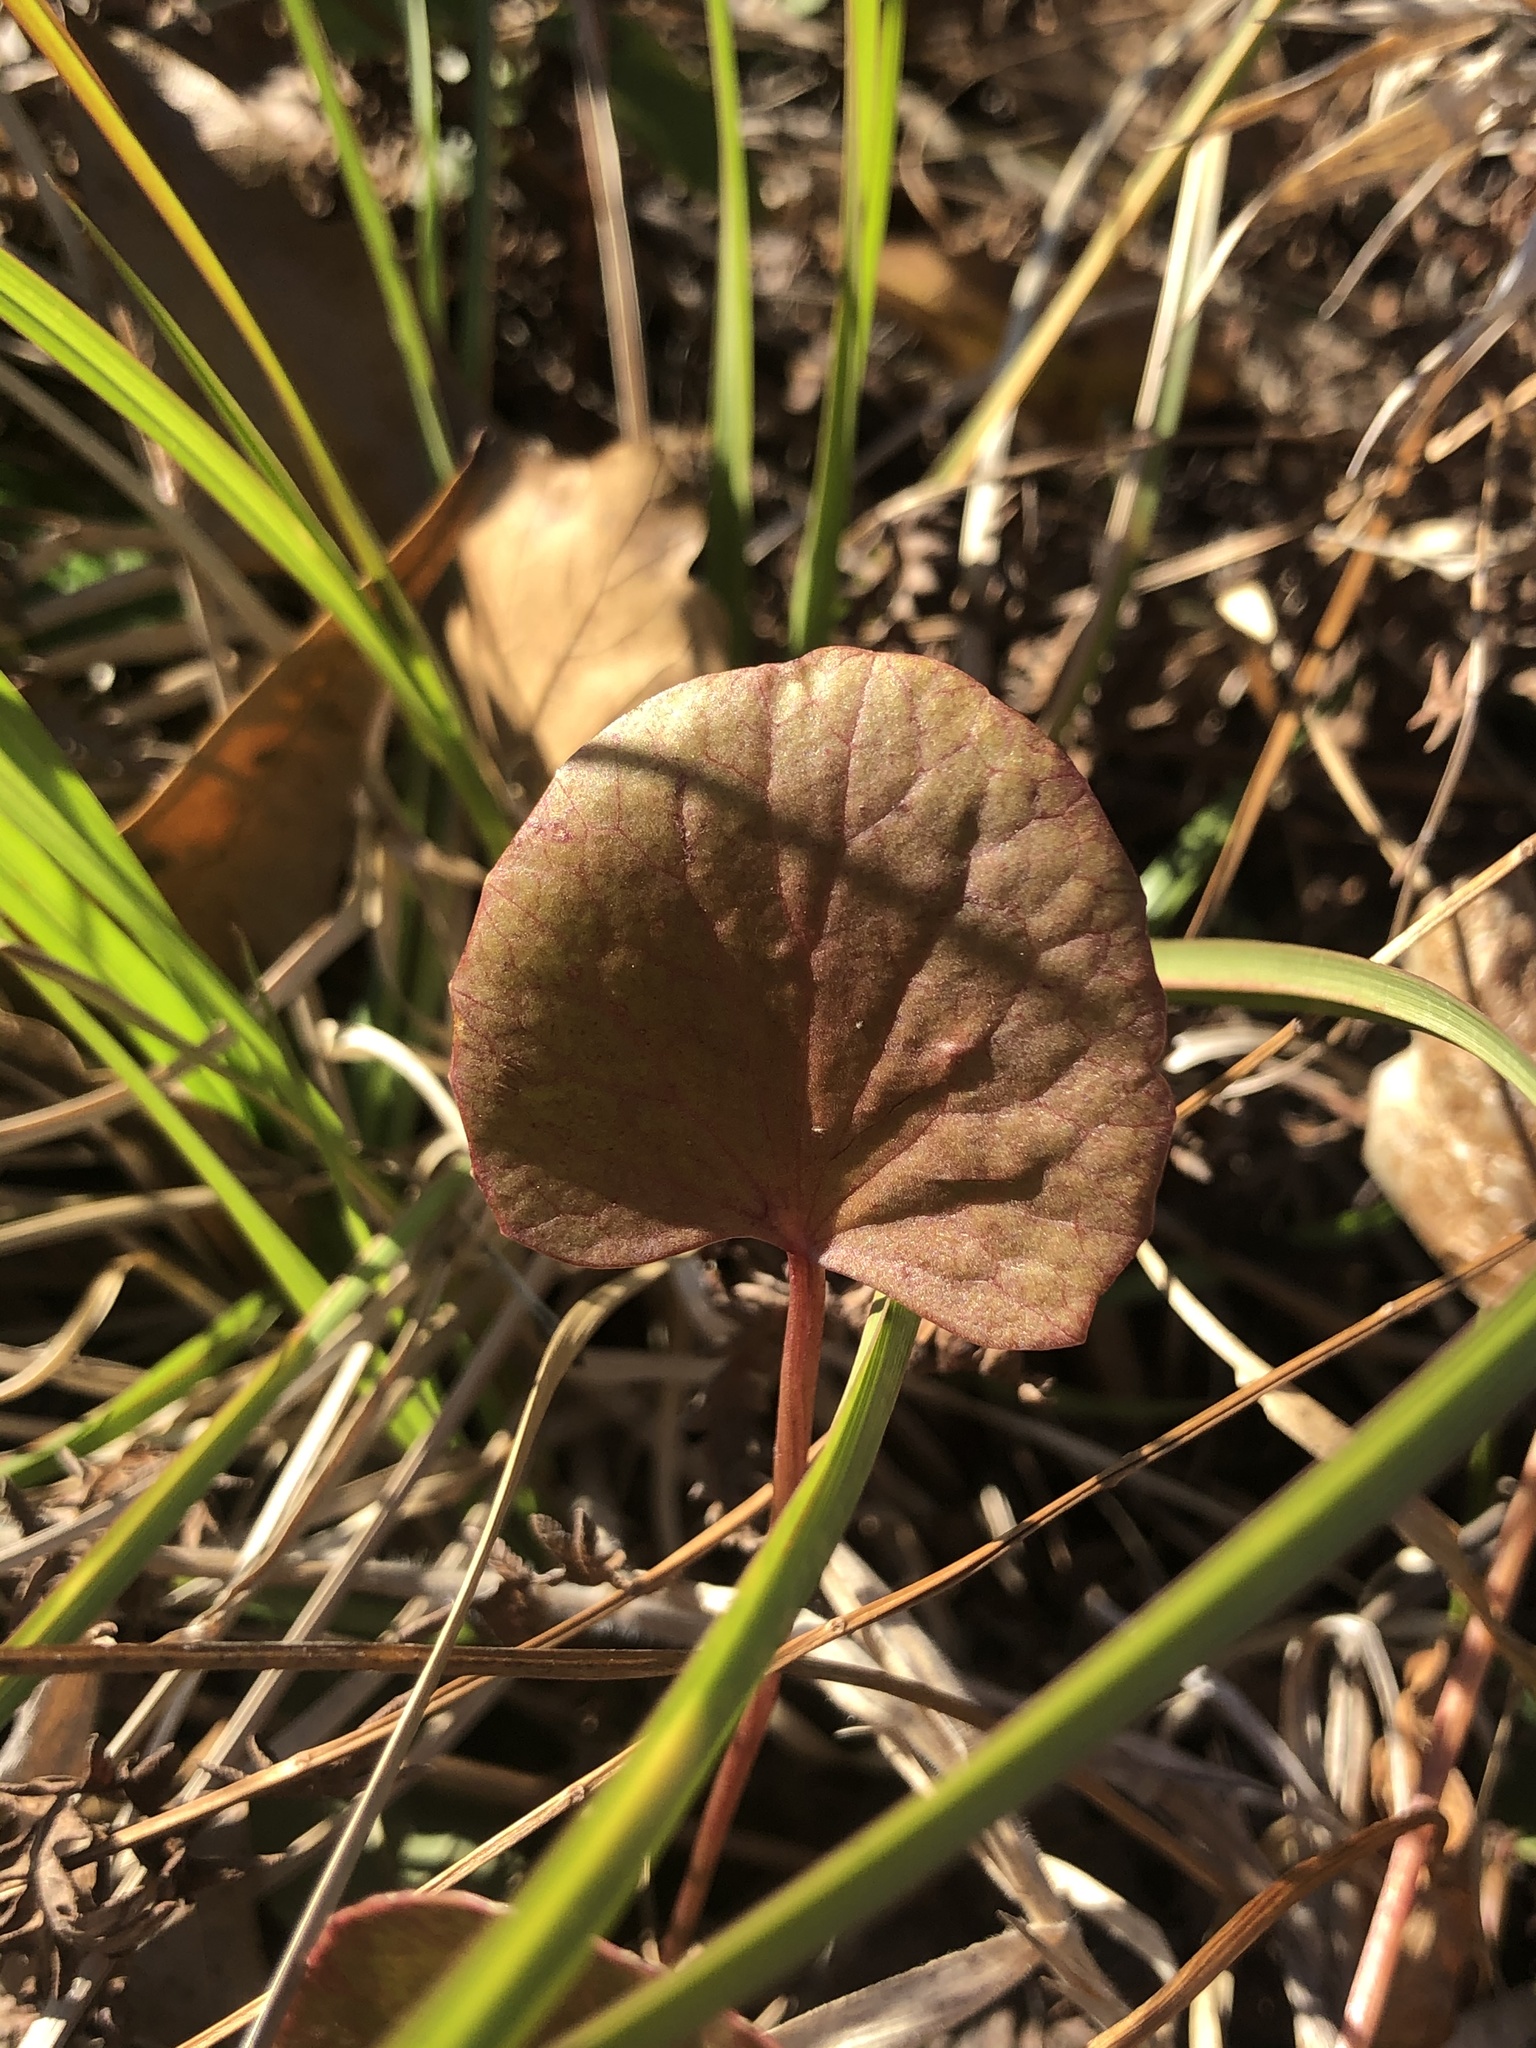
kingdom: Plantae
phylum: Tracheophyta
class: Magnoliopsida
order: Apiales
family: Apiaceae
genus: Centella
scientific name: Centella erecta
